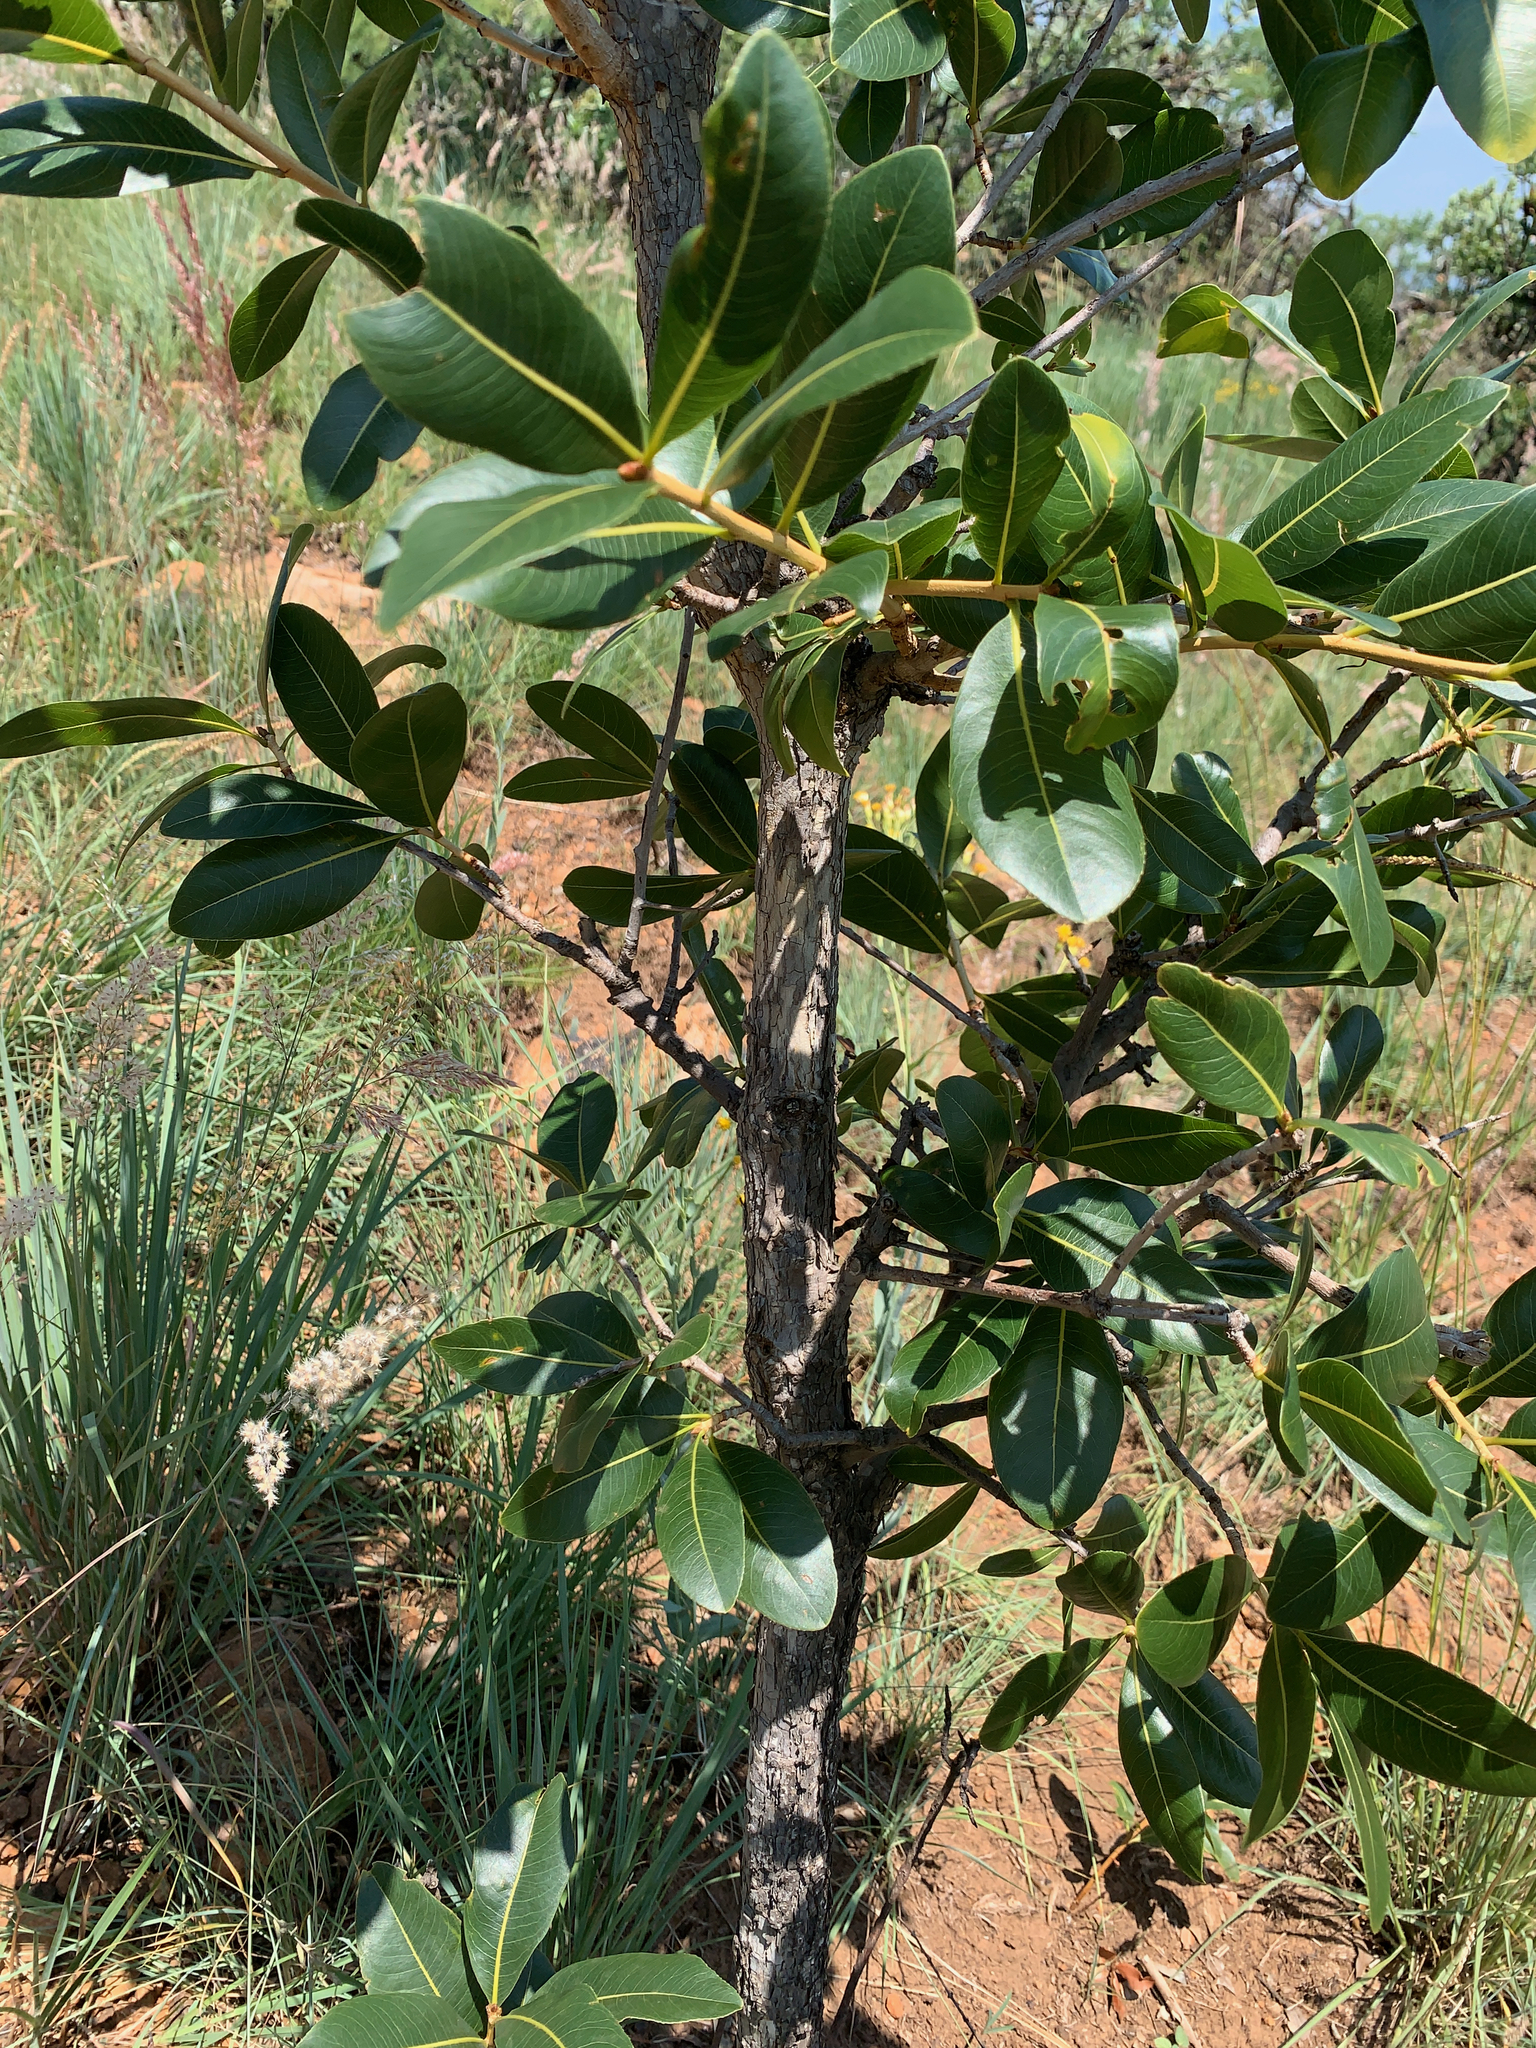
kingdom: Plantae
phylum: Tracheophyta
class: Magnoliopsida
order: Malpighiales
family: Ochnaceae
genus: Ochna
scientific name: Ochna pulchra
